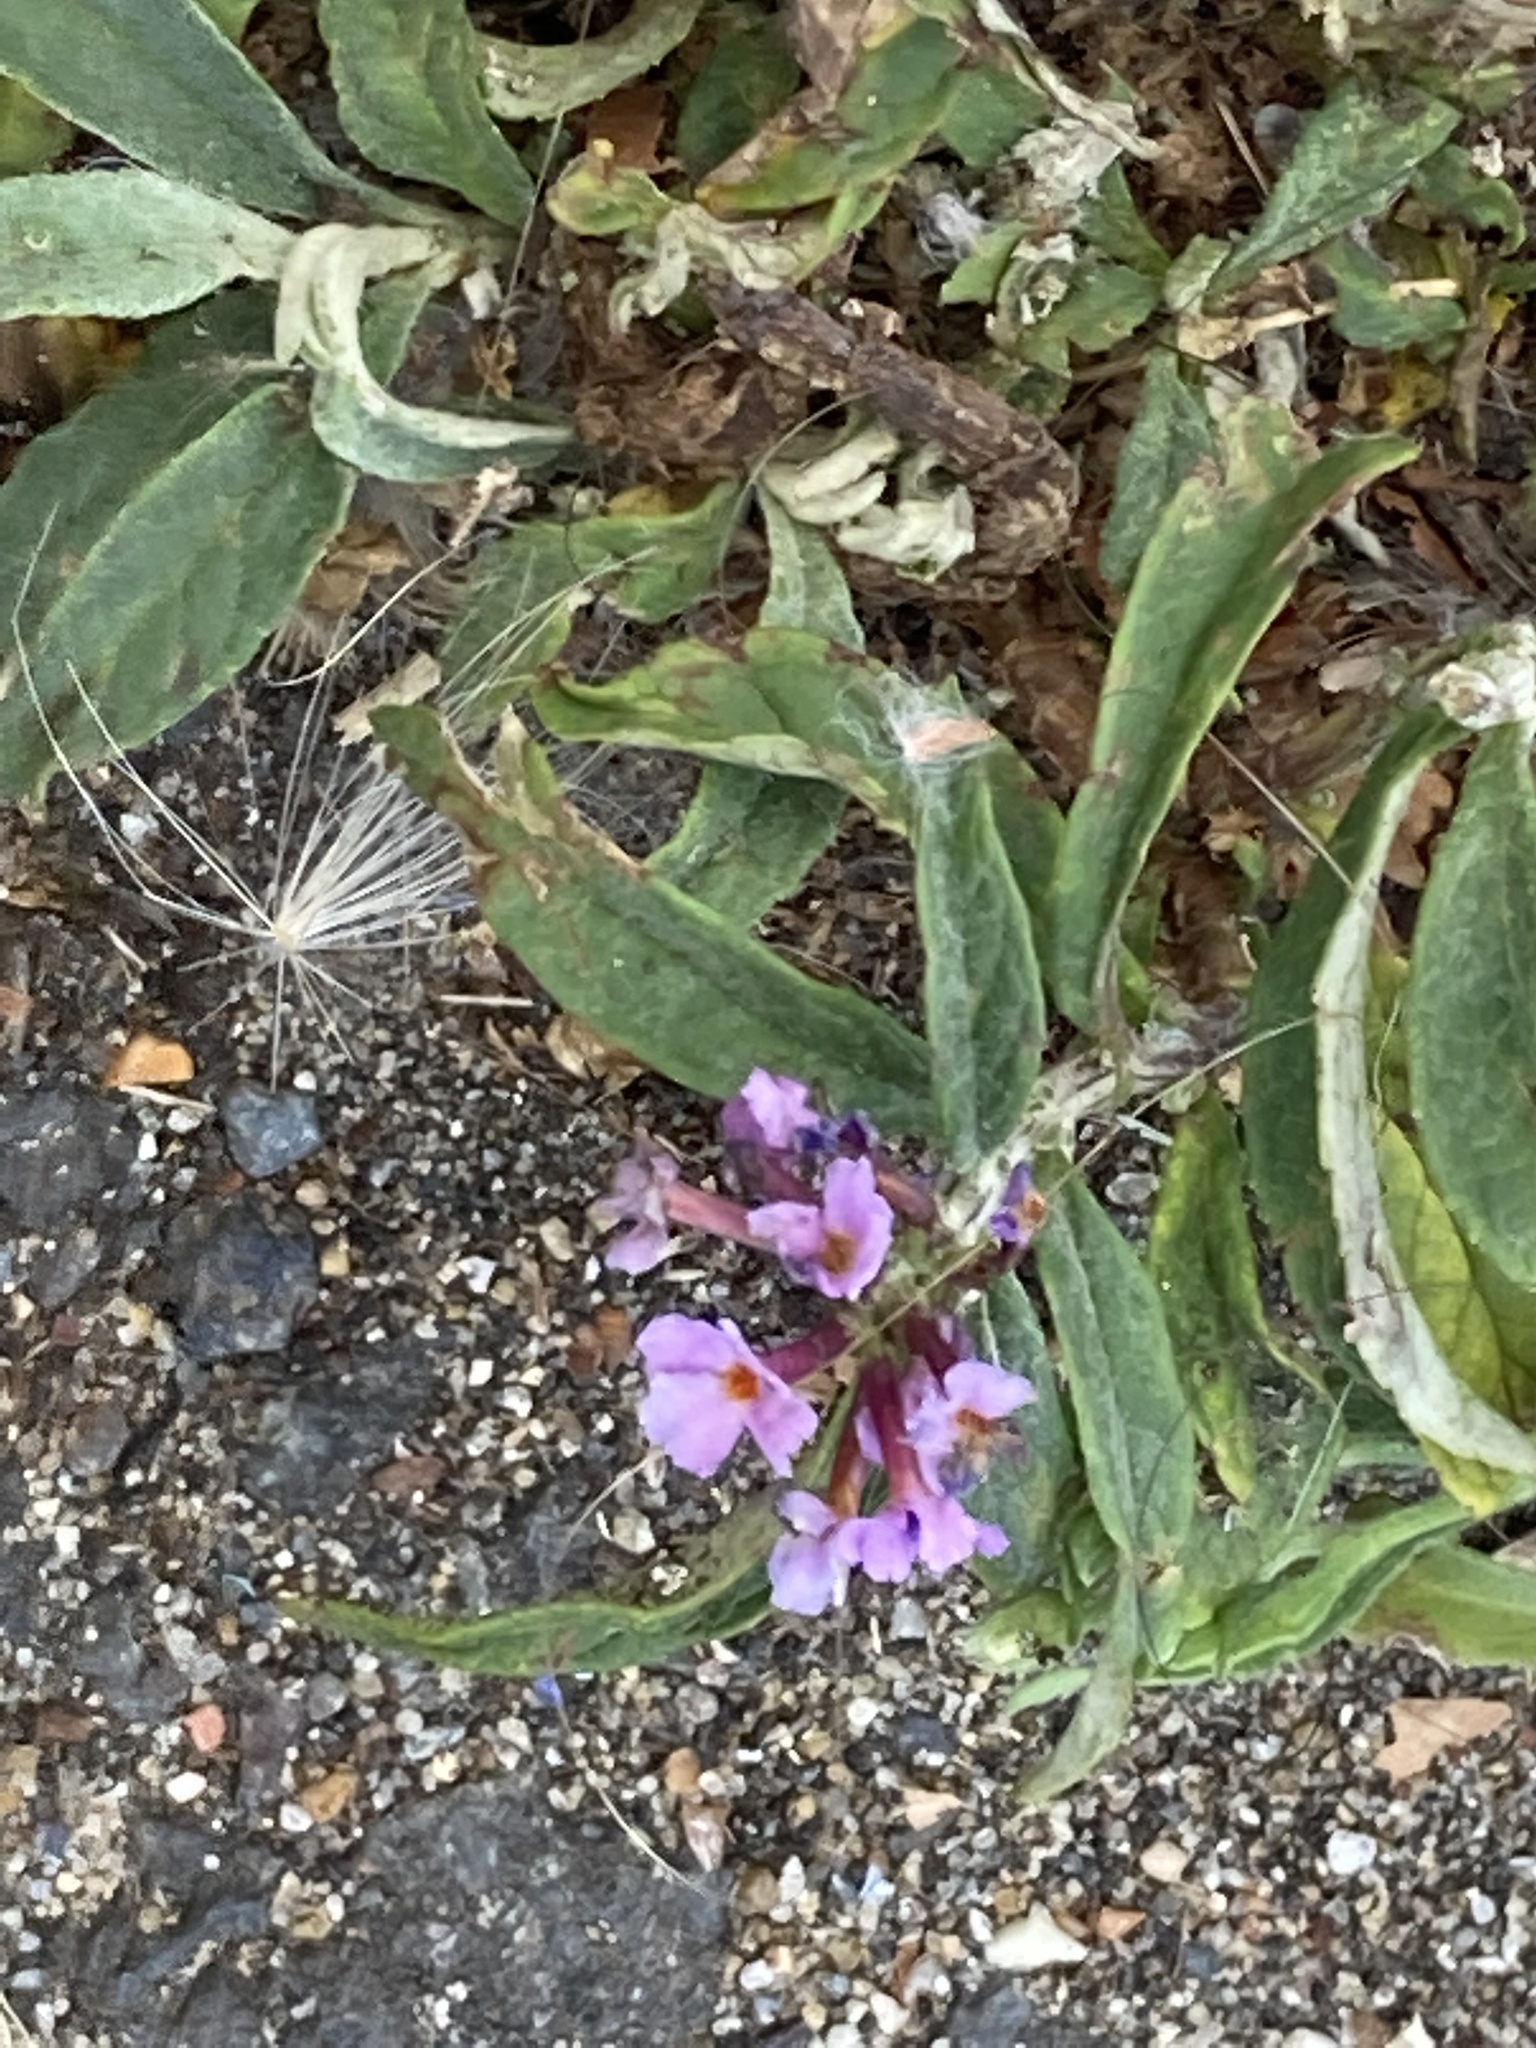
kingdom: Plantae
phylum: Tracheophyta
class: Magnoliopsida
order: Lamiales
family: Scrophulariaceae
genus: Buddleja
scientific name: Buddleja davidii
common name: Butterfly-bush
